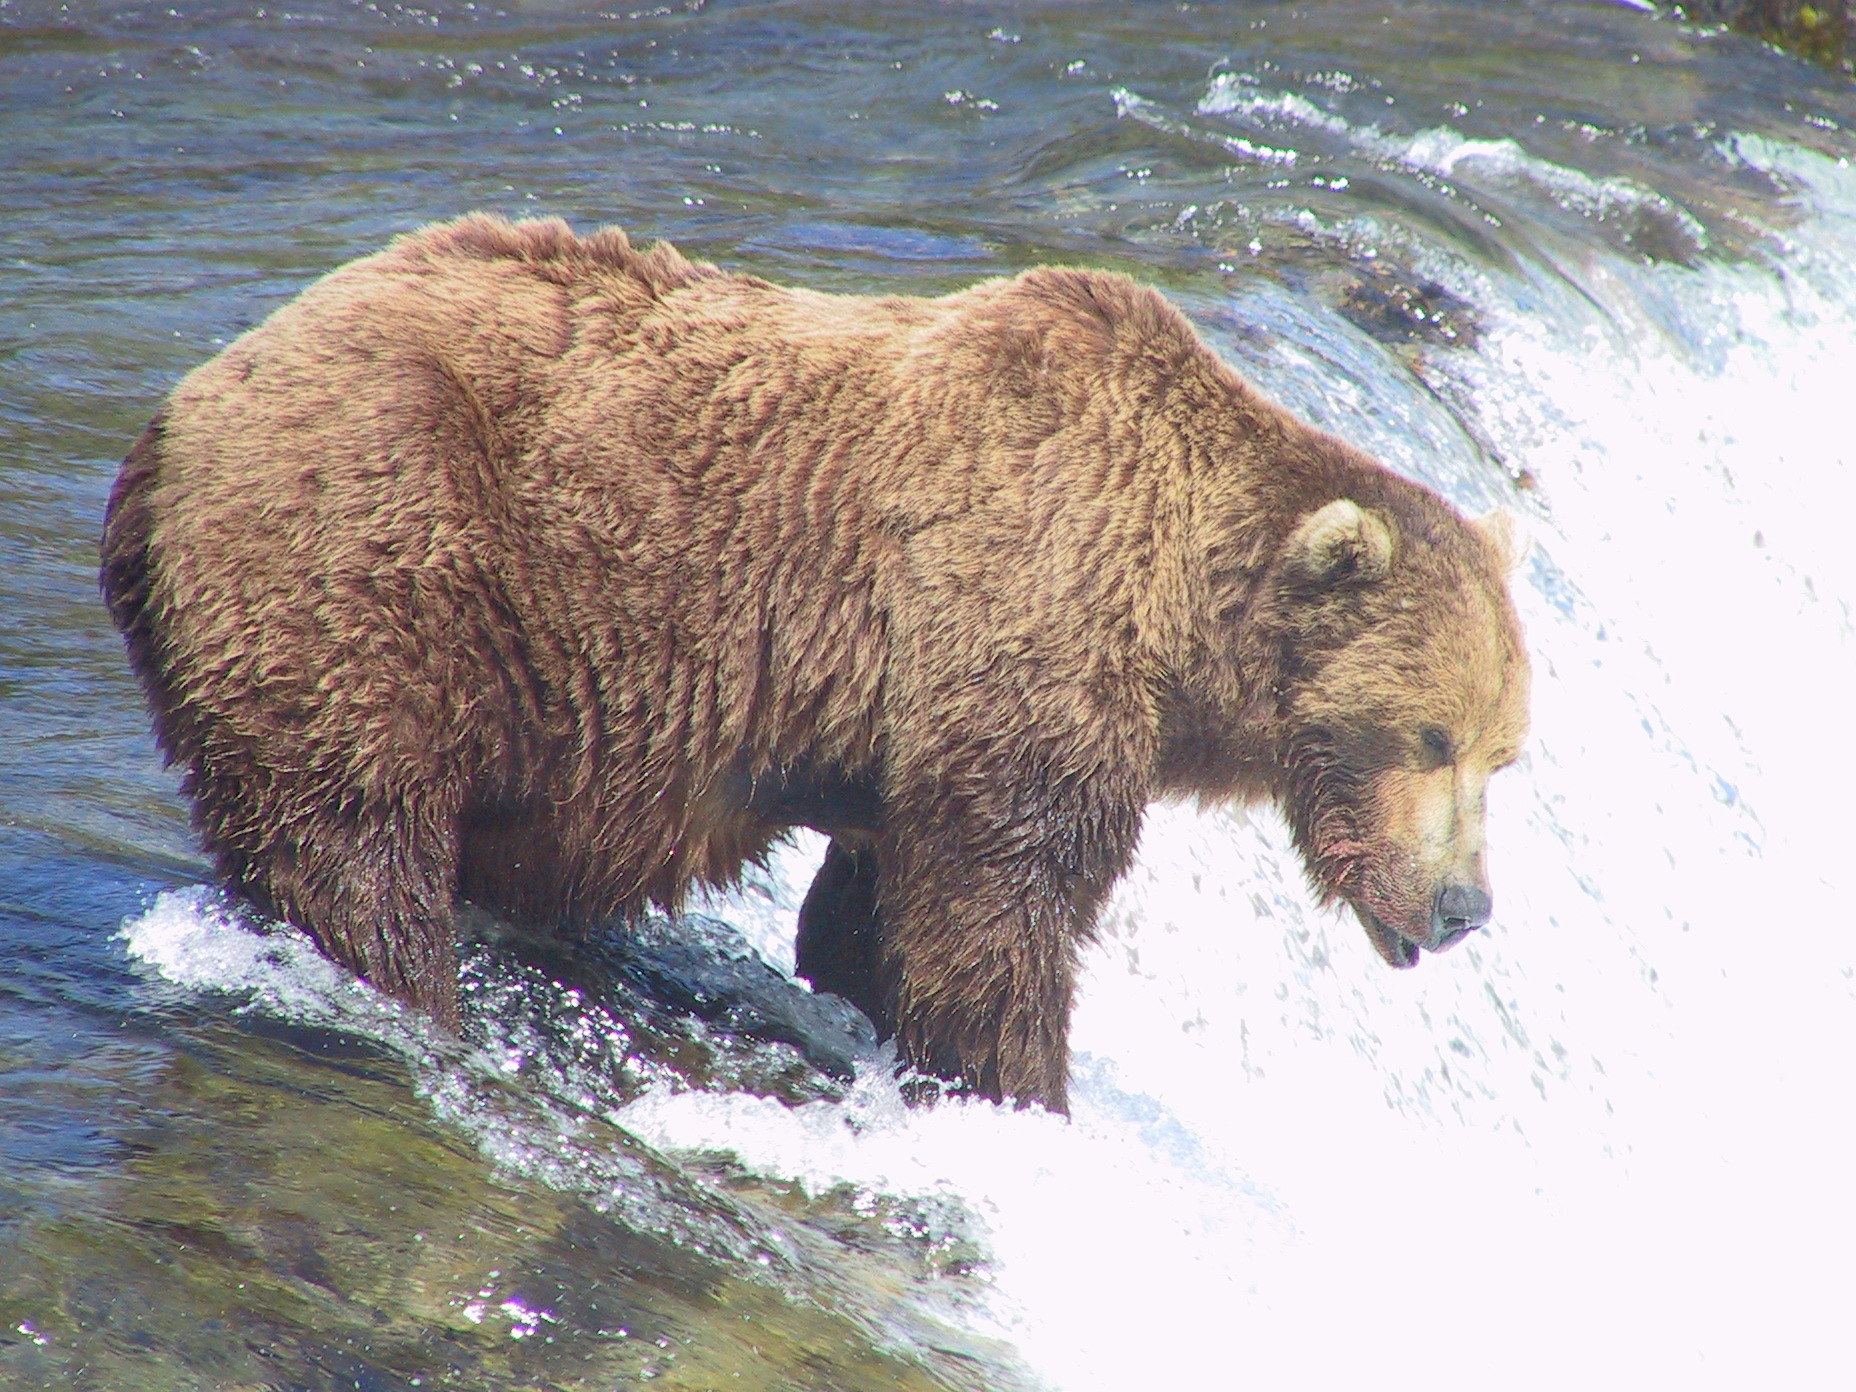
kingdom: Animalia
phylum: Chordata
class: Mammalia
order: Carnivora
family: Ursidae
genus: Ursus
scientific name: Ursus arctos
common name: Brown bear
